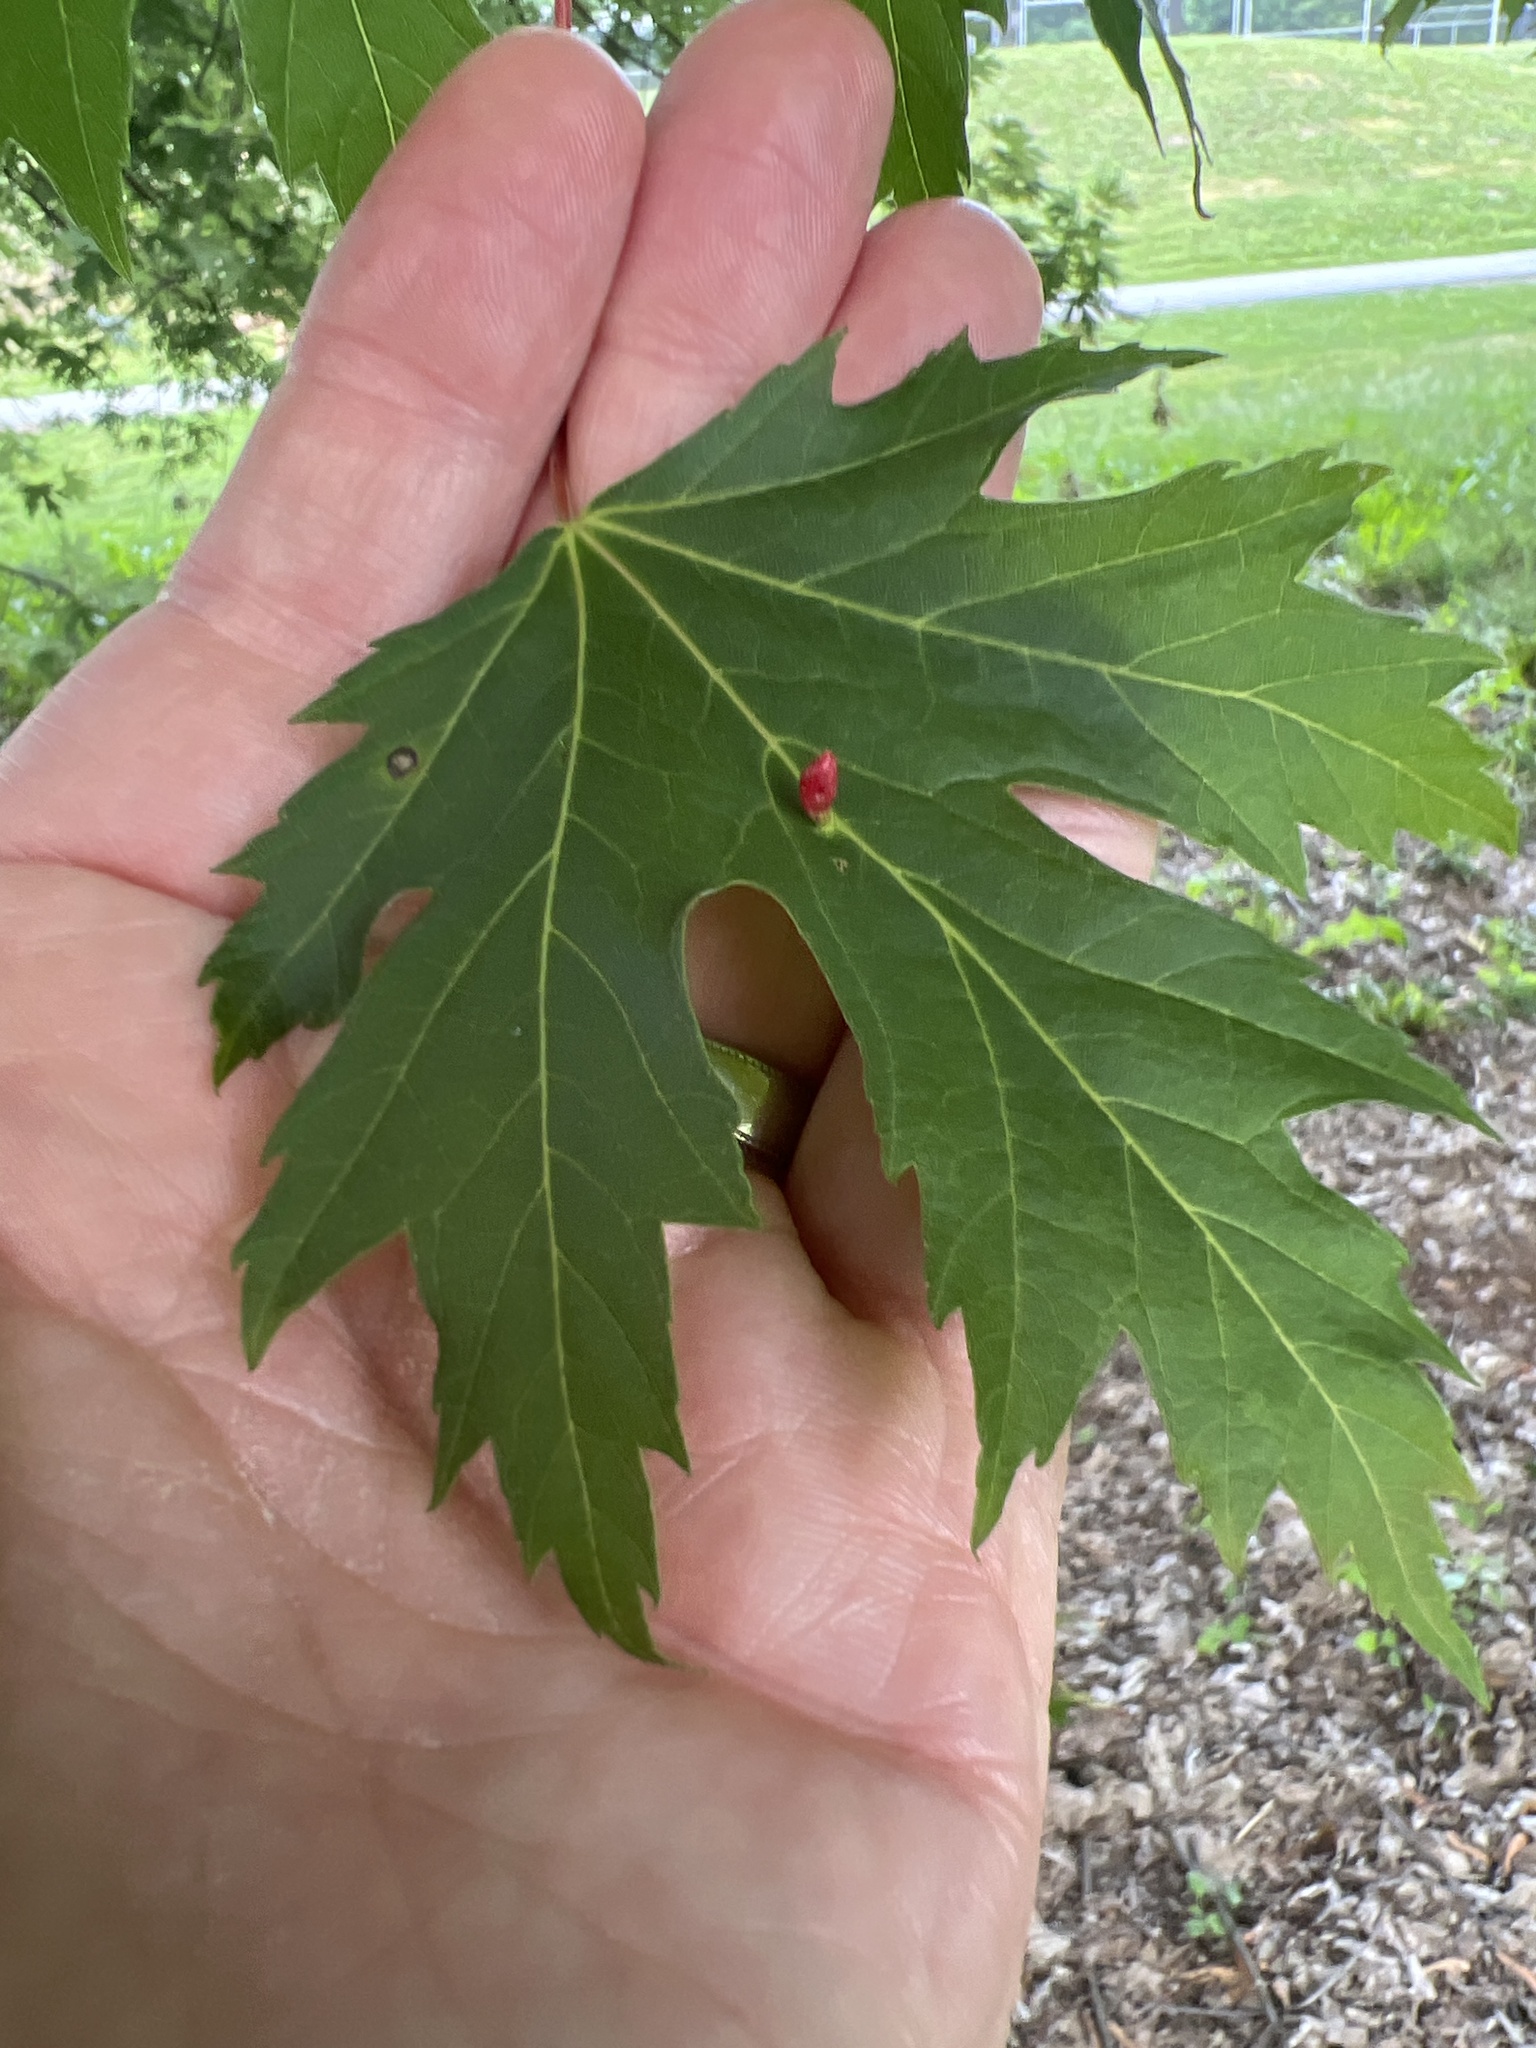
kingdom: Animalia
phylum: Arthropoda
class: Arachnida
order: Trombidiformes
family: Eriophyidae
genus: Vasates
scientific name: Vasates quadripedes
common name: Maple bladder gall mite
